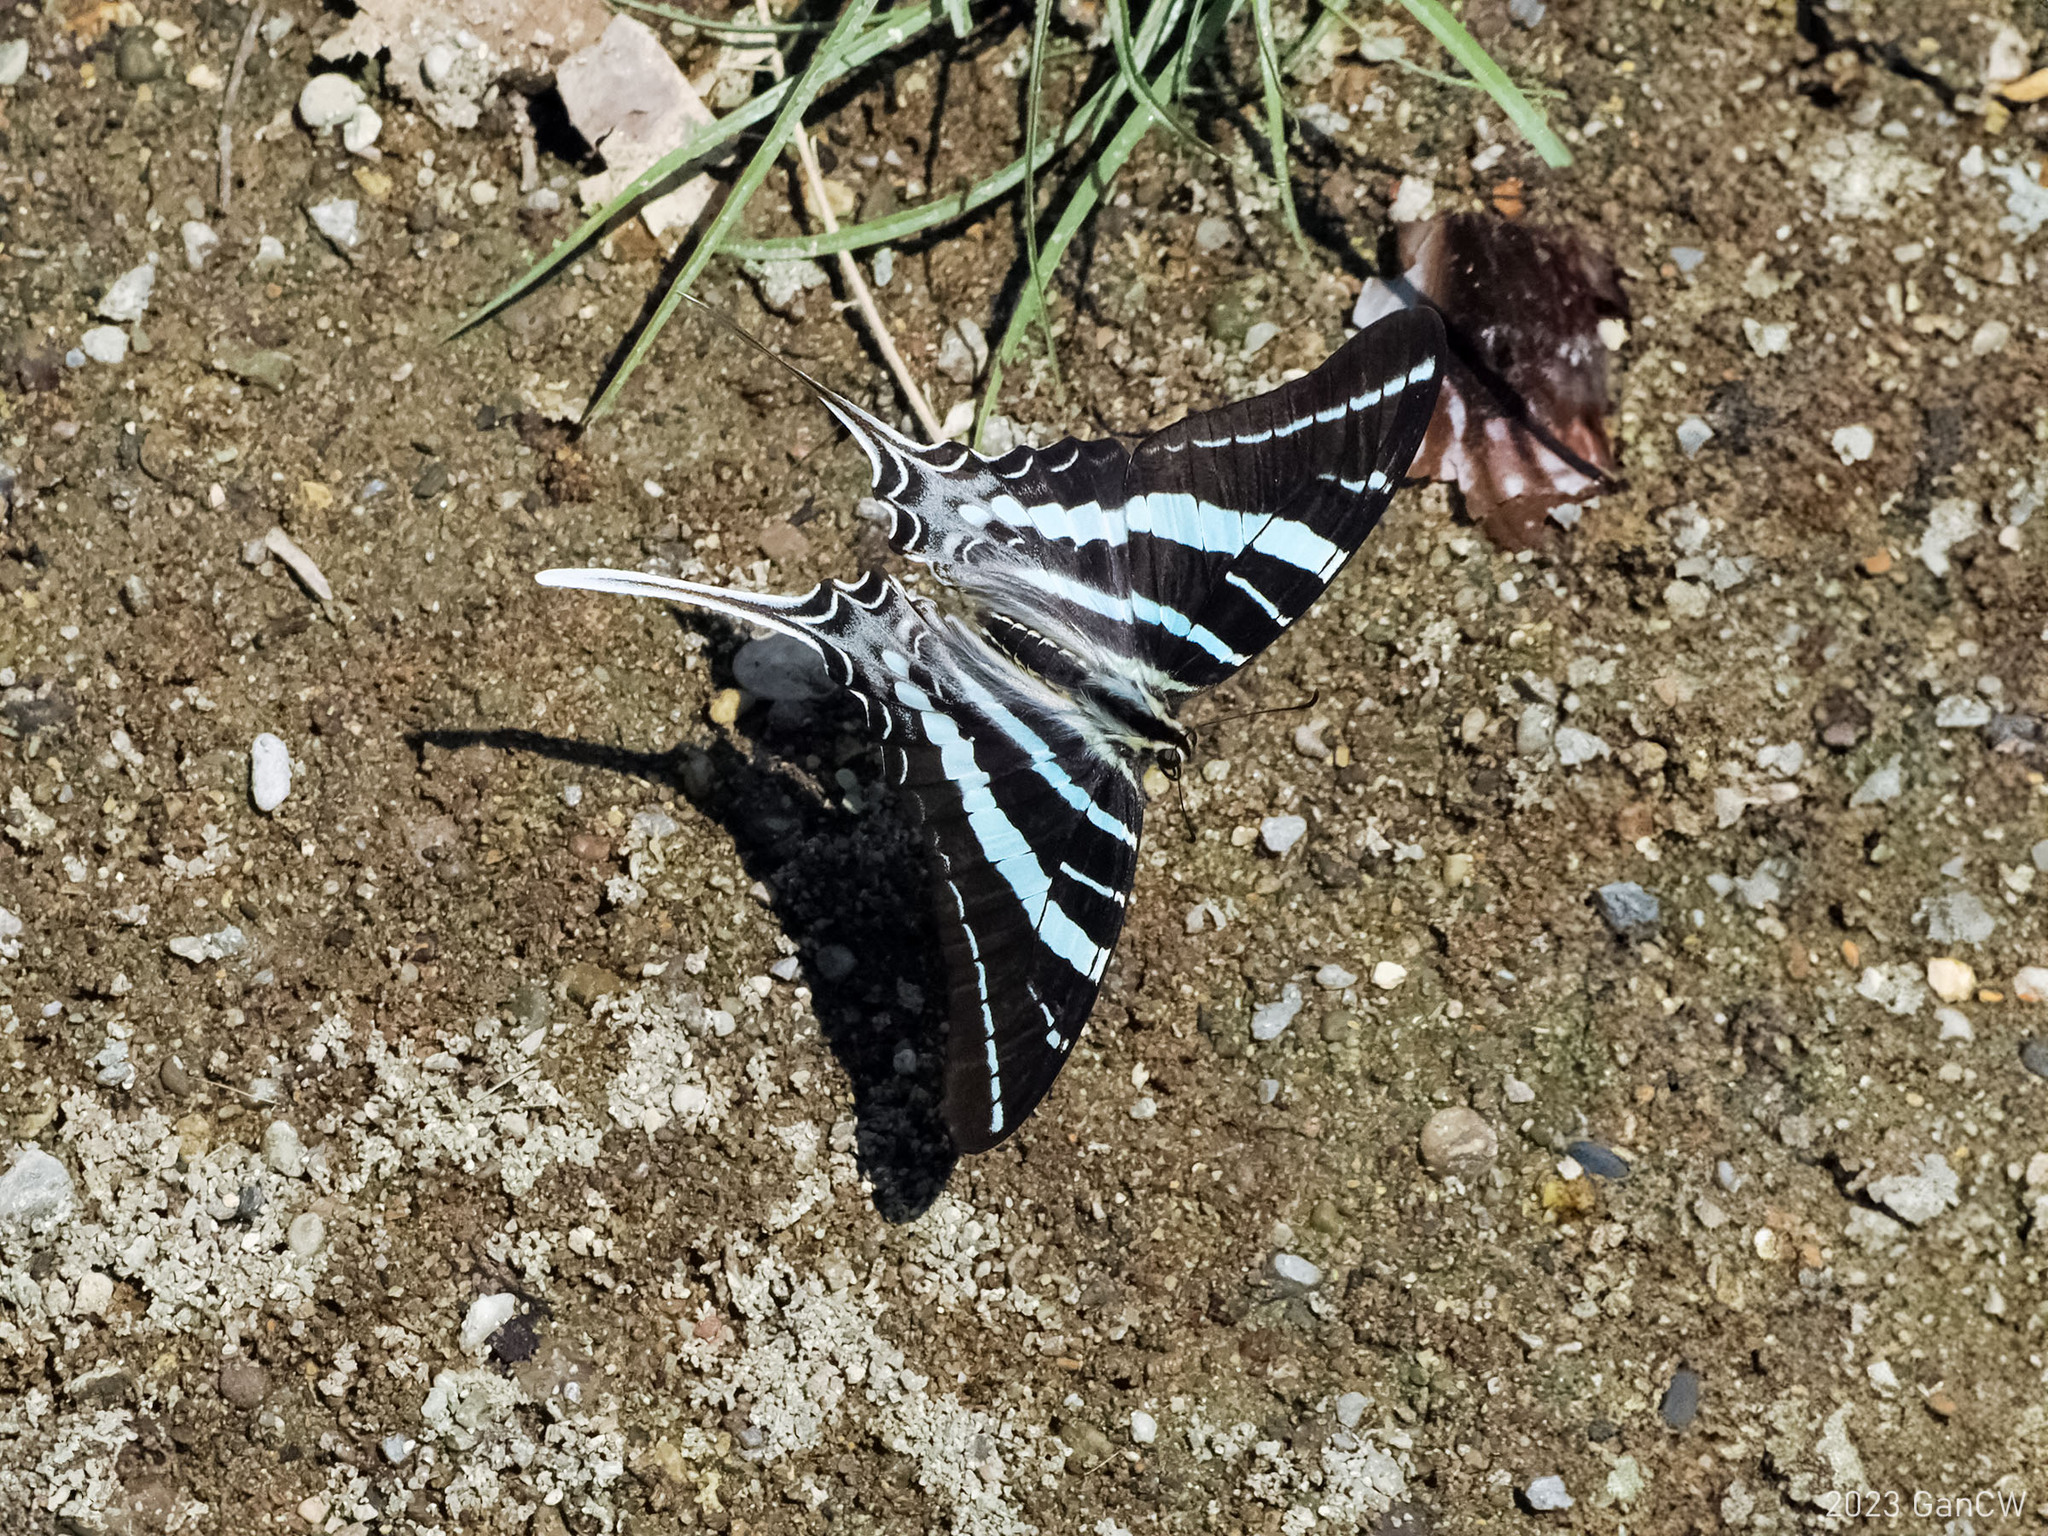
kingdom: Animalia
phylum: Arthropoda
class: Insecta
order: Lepidoptera
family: Papilionidae
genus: Graphium
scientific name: Graphium rhesus
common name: Monkey swordtail
